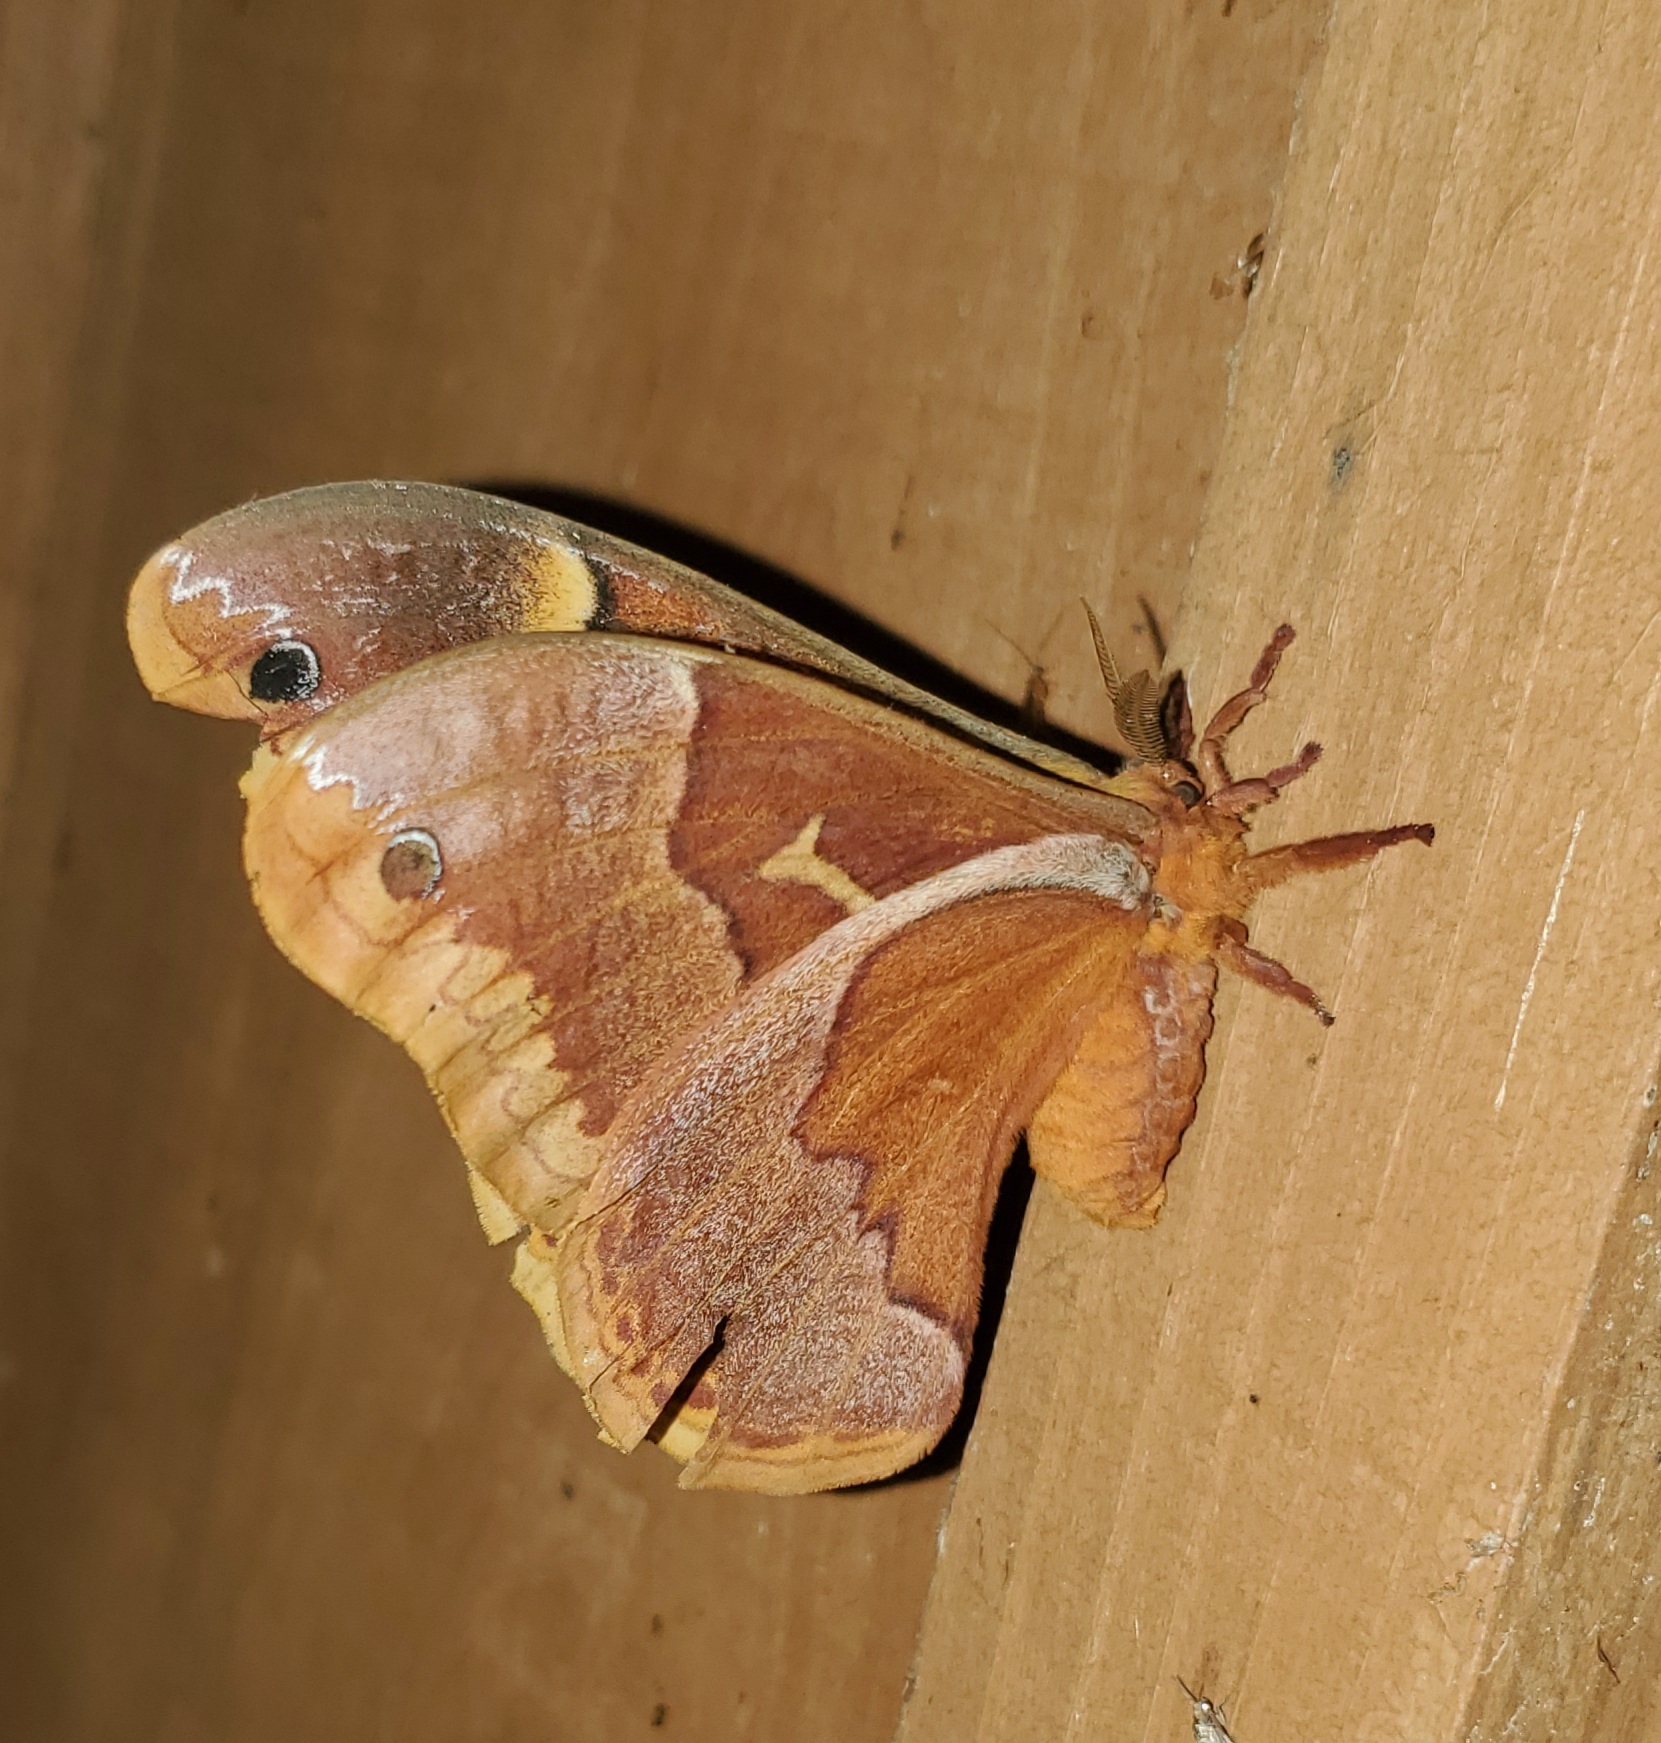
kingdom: Animalia
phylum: Arthropoda
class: Insecta
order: Lepidoptera
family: Saturniidae
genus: Callosamia
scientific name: Callosamia securifera
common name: Sweetbay silkmoth
